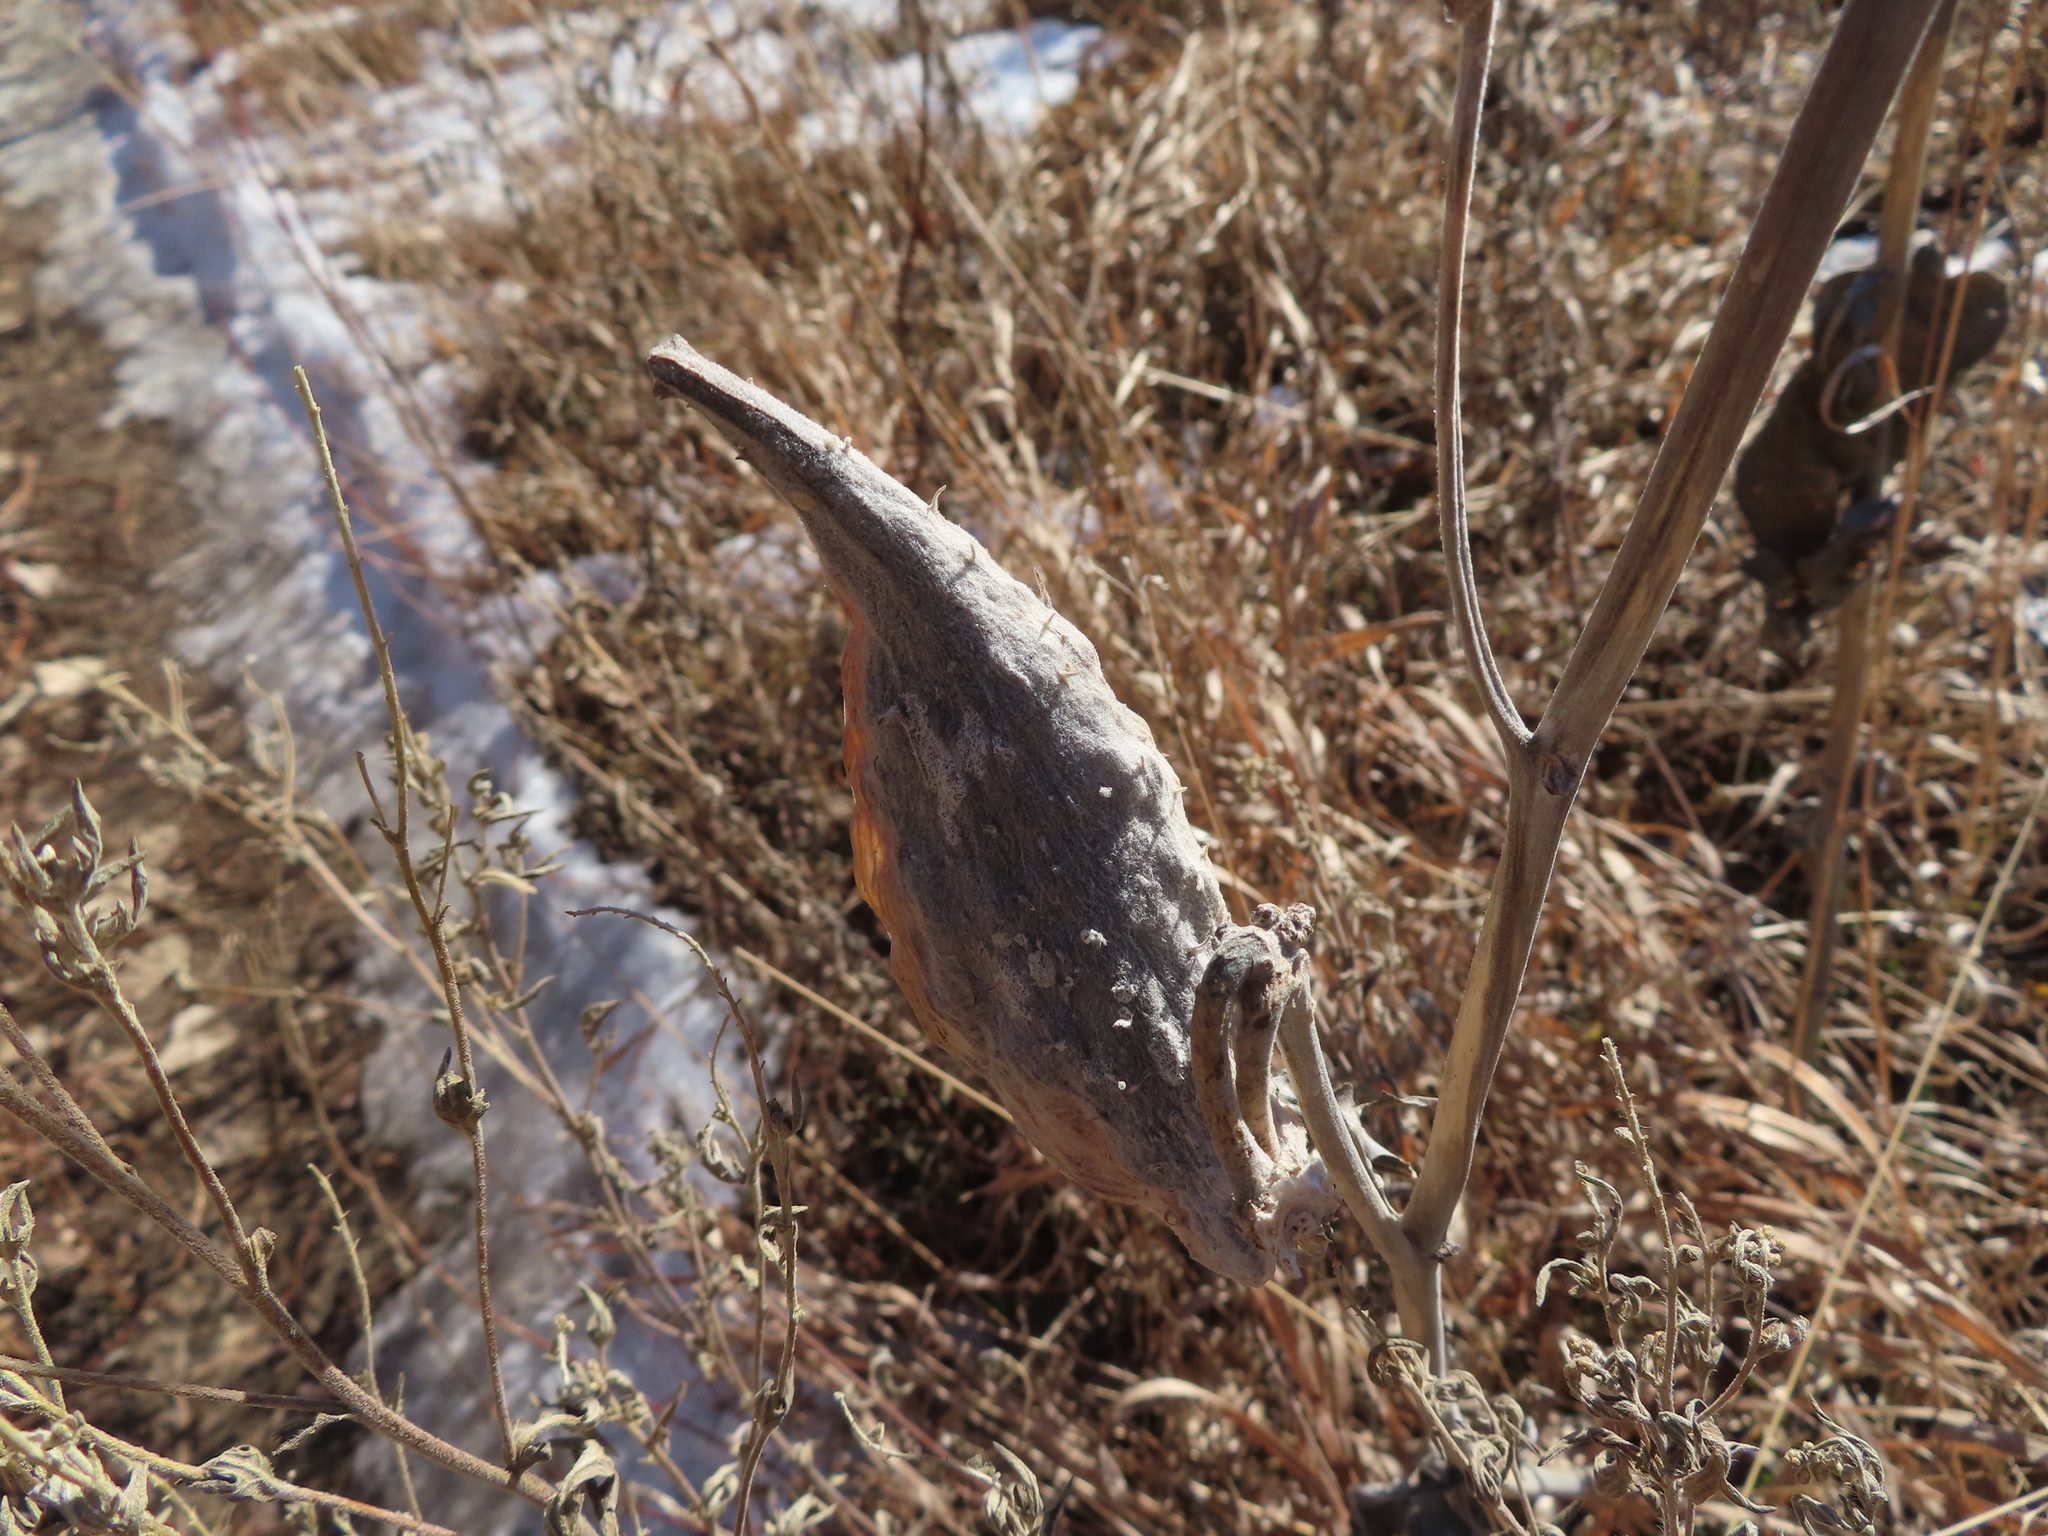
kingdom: Plantae
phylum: Tracheophyta
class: Magnoliopsida
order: Gentianales
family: Apocynaceae
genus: Asclepias
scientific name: Asclepias speciosa
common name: Showy milkweed
